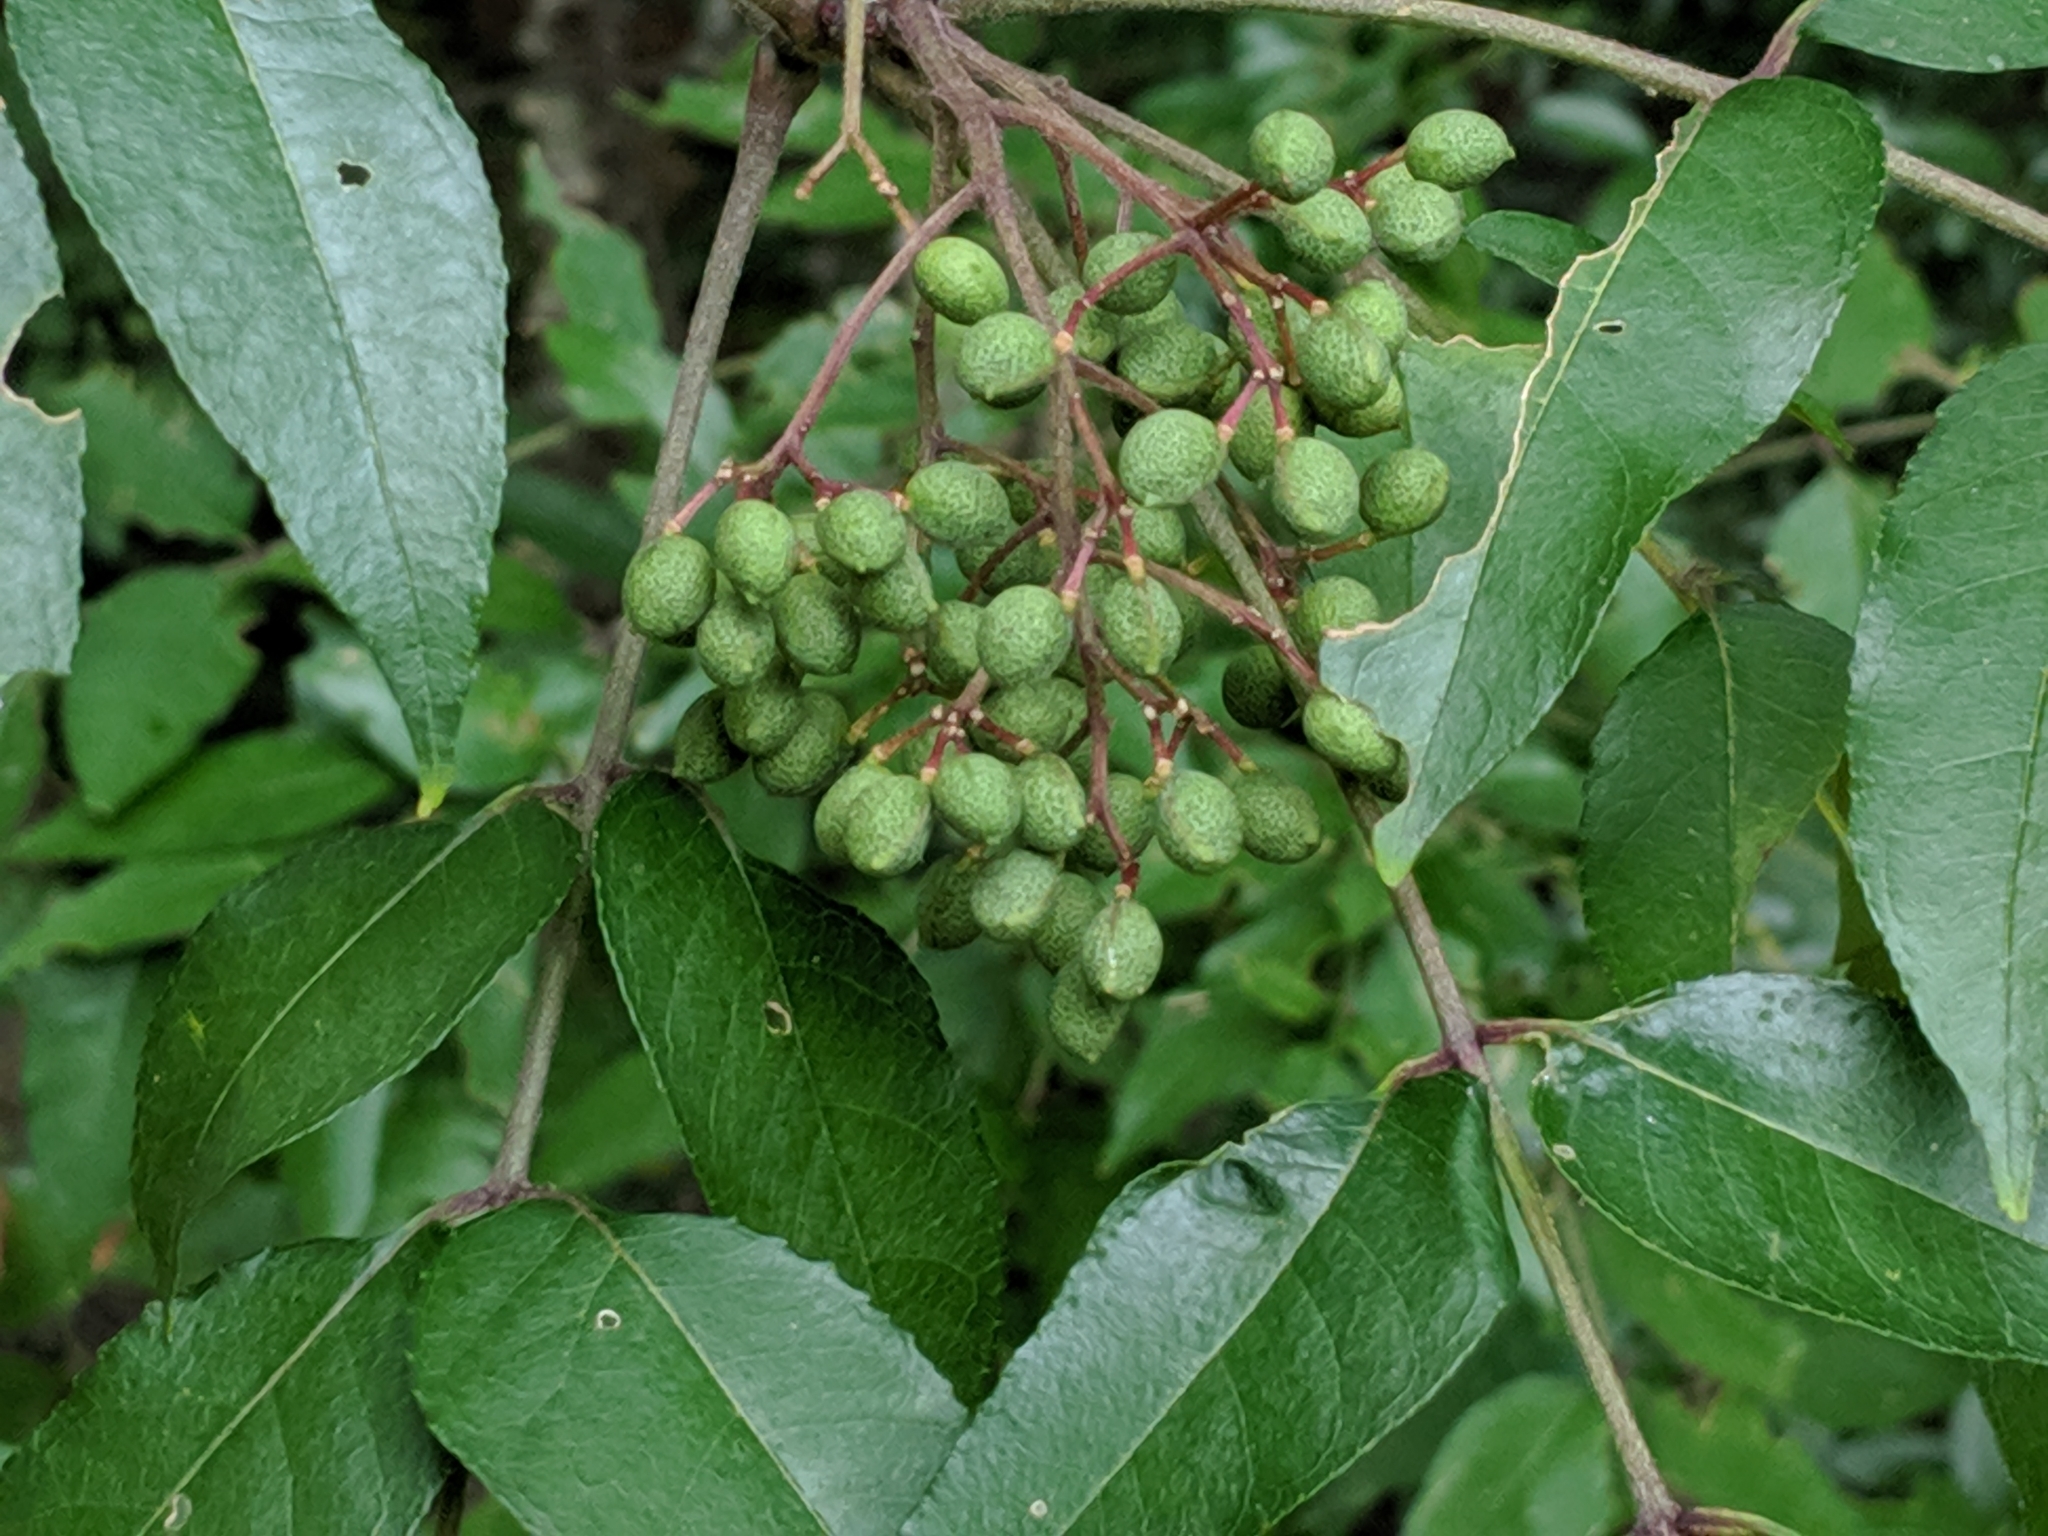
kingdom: Plantae
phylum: Tracheophyta
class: Magnoliopsida
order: Sapindales
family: Rutaceae
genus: Zanthoxylum
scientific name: Zanthoxylum clava-herculis
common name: Hercules'-club
